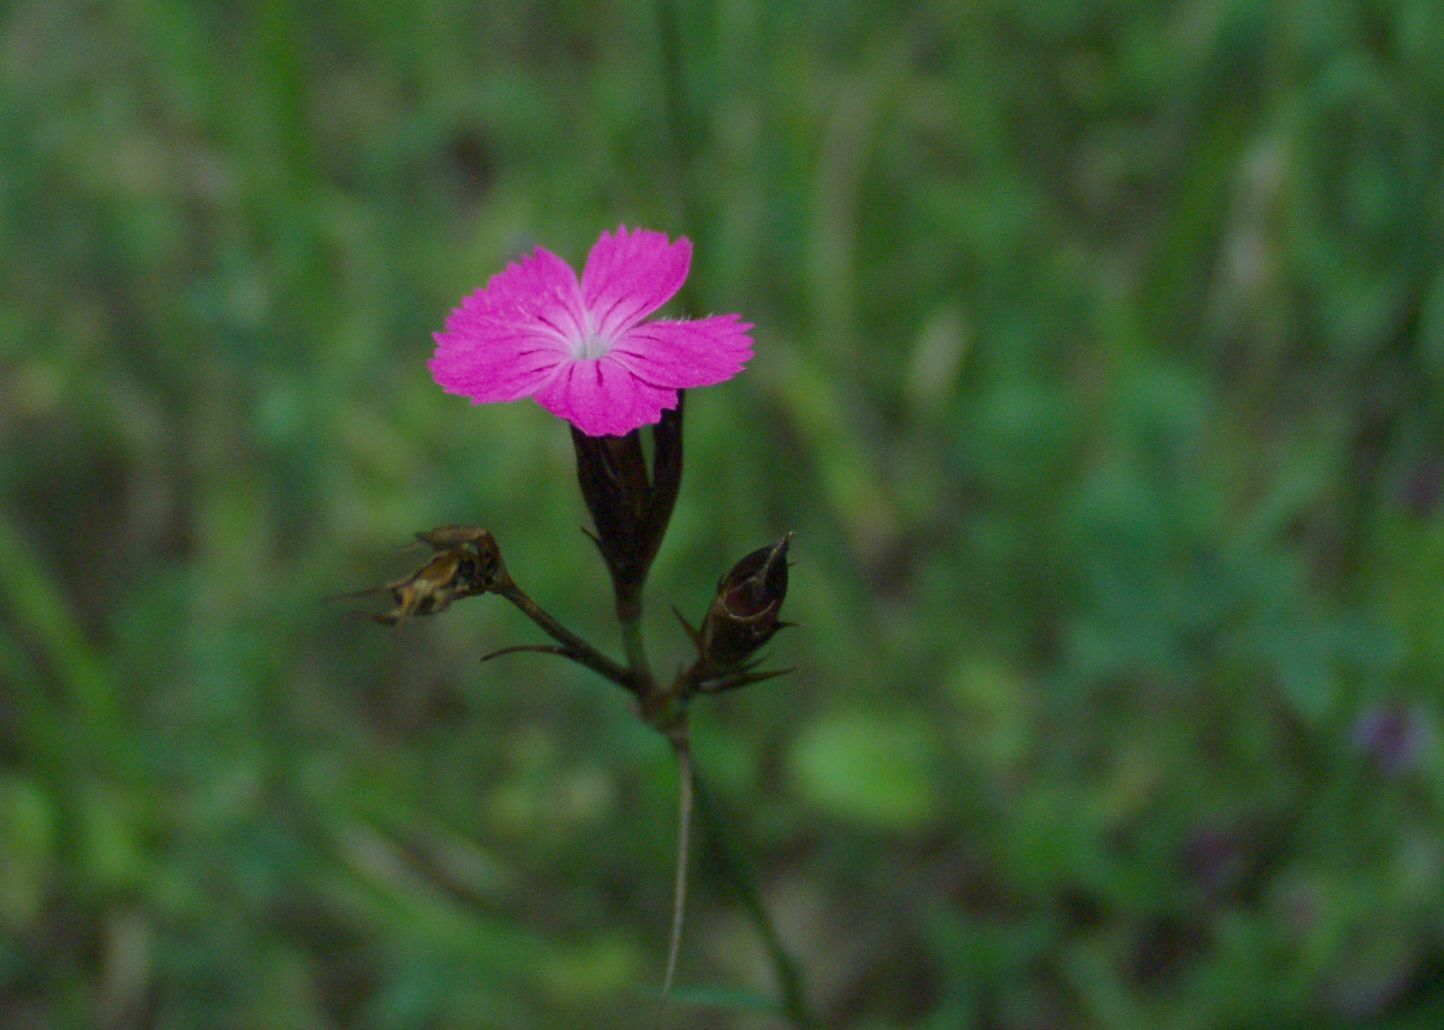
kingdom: Plantae
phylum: Tracheophyta
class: Magnoliopsida
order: Caryophyllales
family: Caryophyllaceae
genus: Dianthus
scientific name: Dianthus carthusianorum
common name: Carthusian pink
